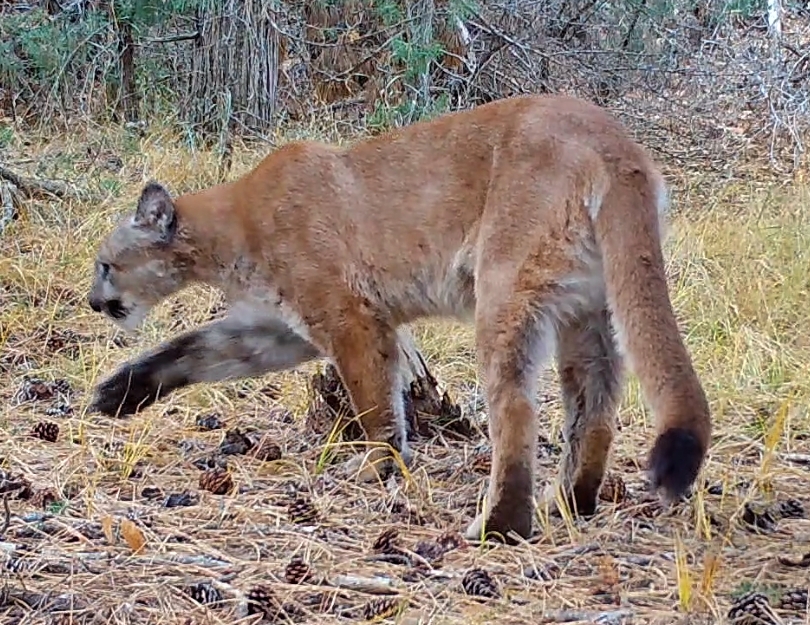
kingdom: Animalia
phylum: Chordata
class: Mammalia
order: Carnivora
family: Felidae
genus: Puma
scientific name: Puma concolor
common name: Puma
